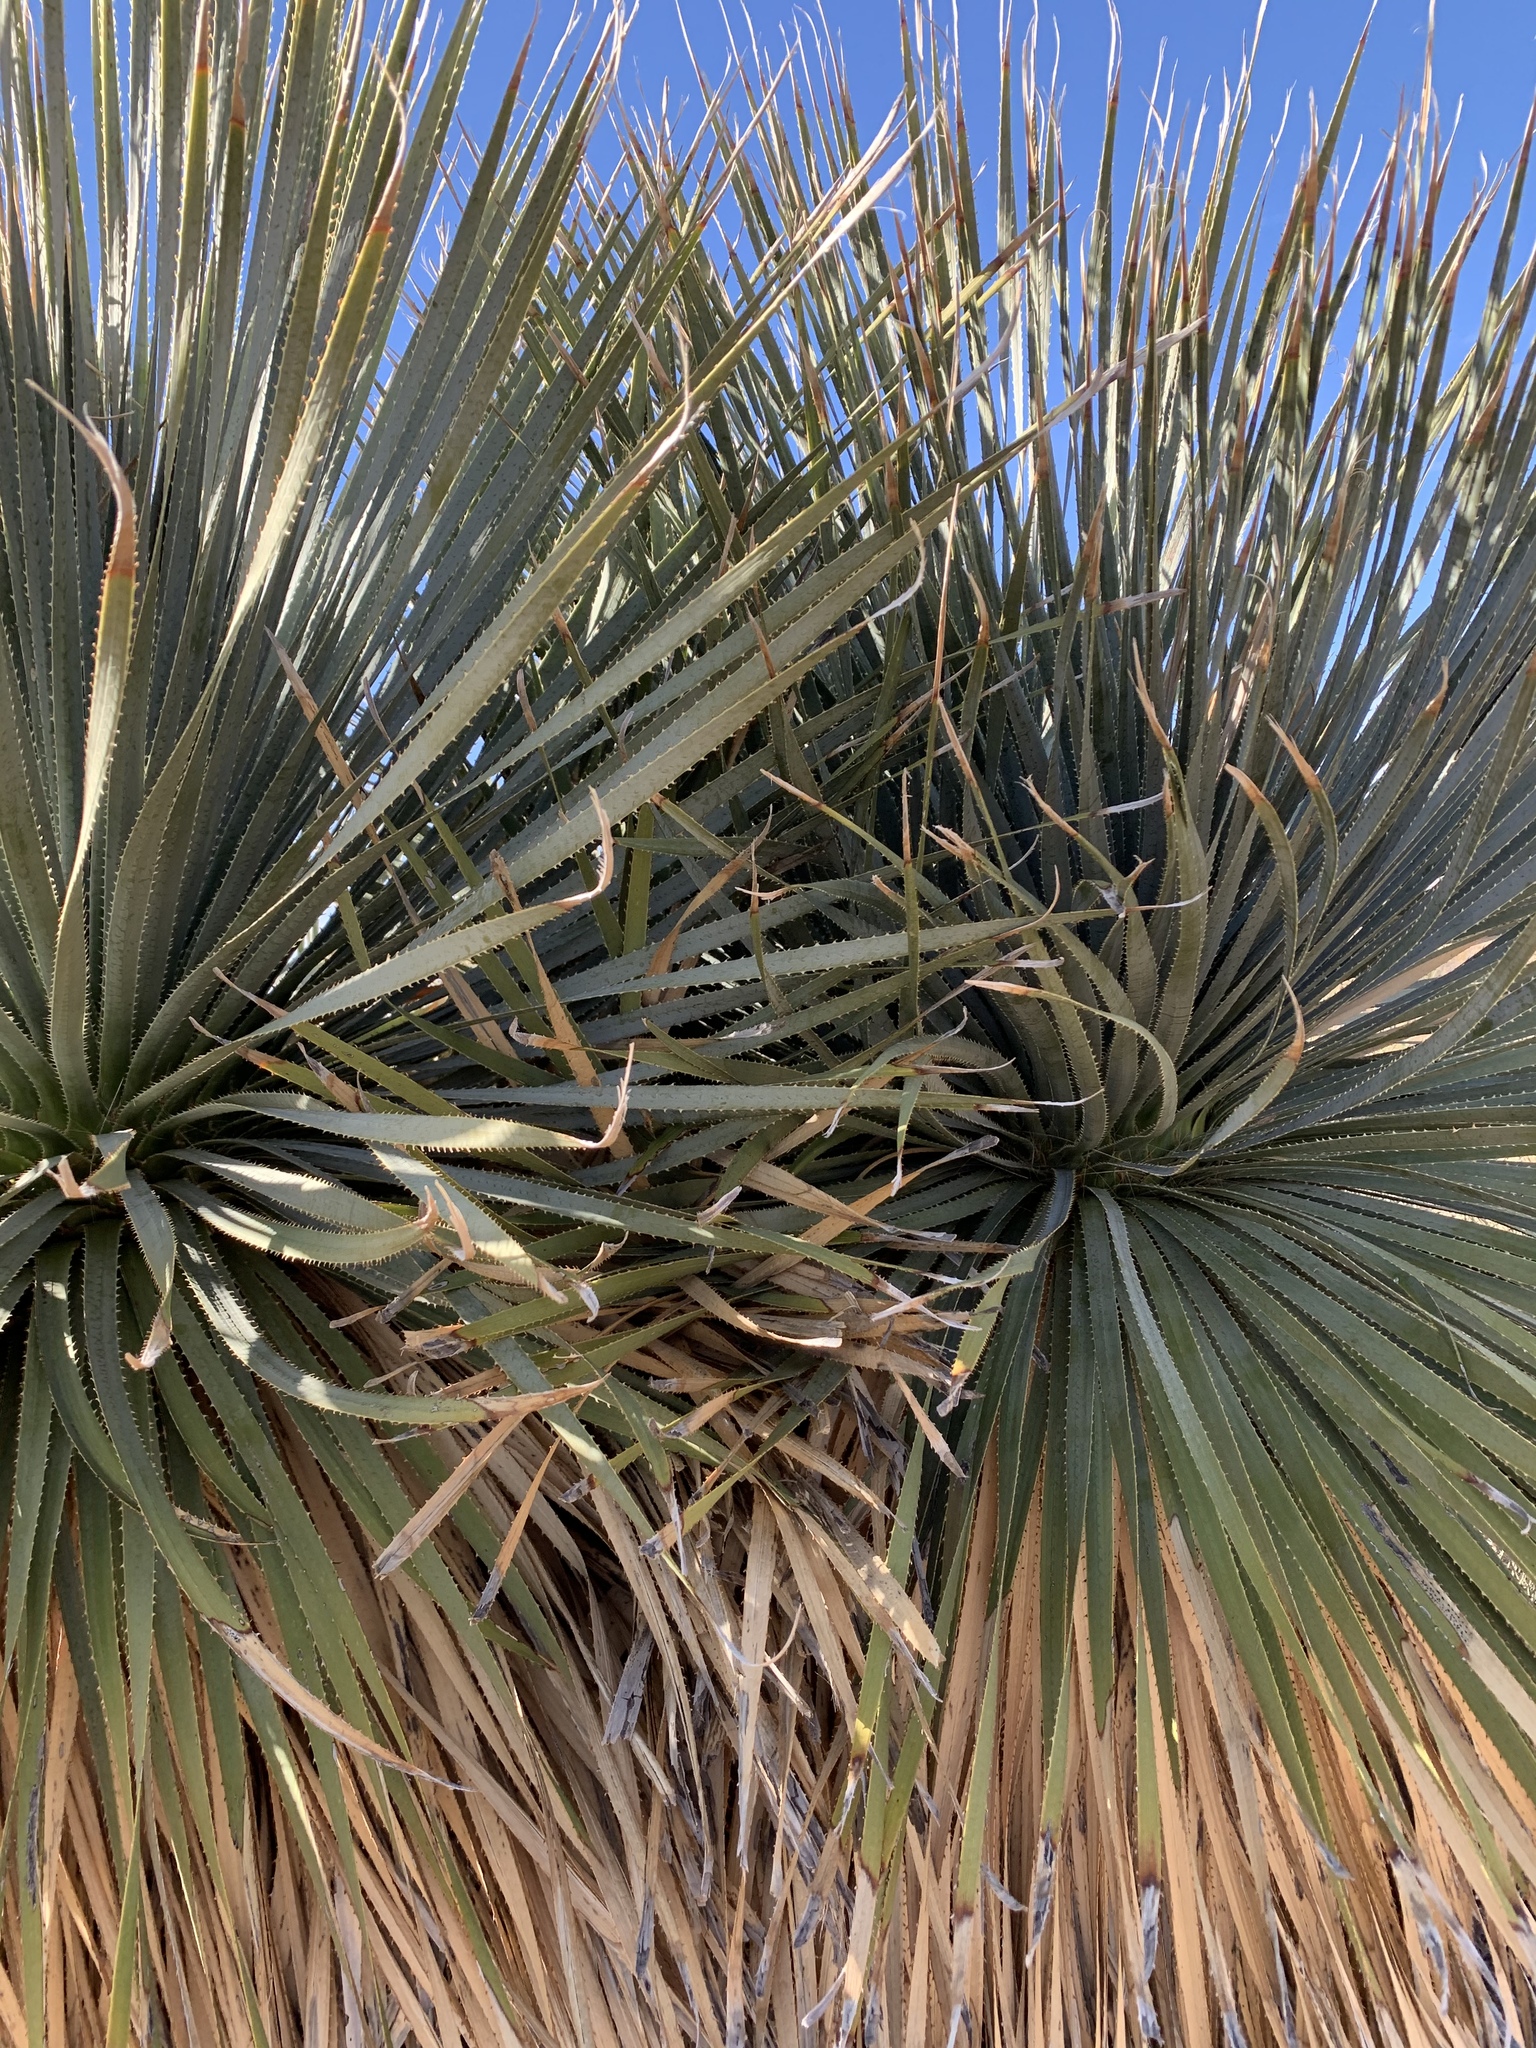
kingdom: Plantae
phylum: Tracheophyta
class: Liliopsida
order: Asparagales
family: Asparagaceae
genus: Dasylirion
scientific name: Dasylirion wheeleri
